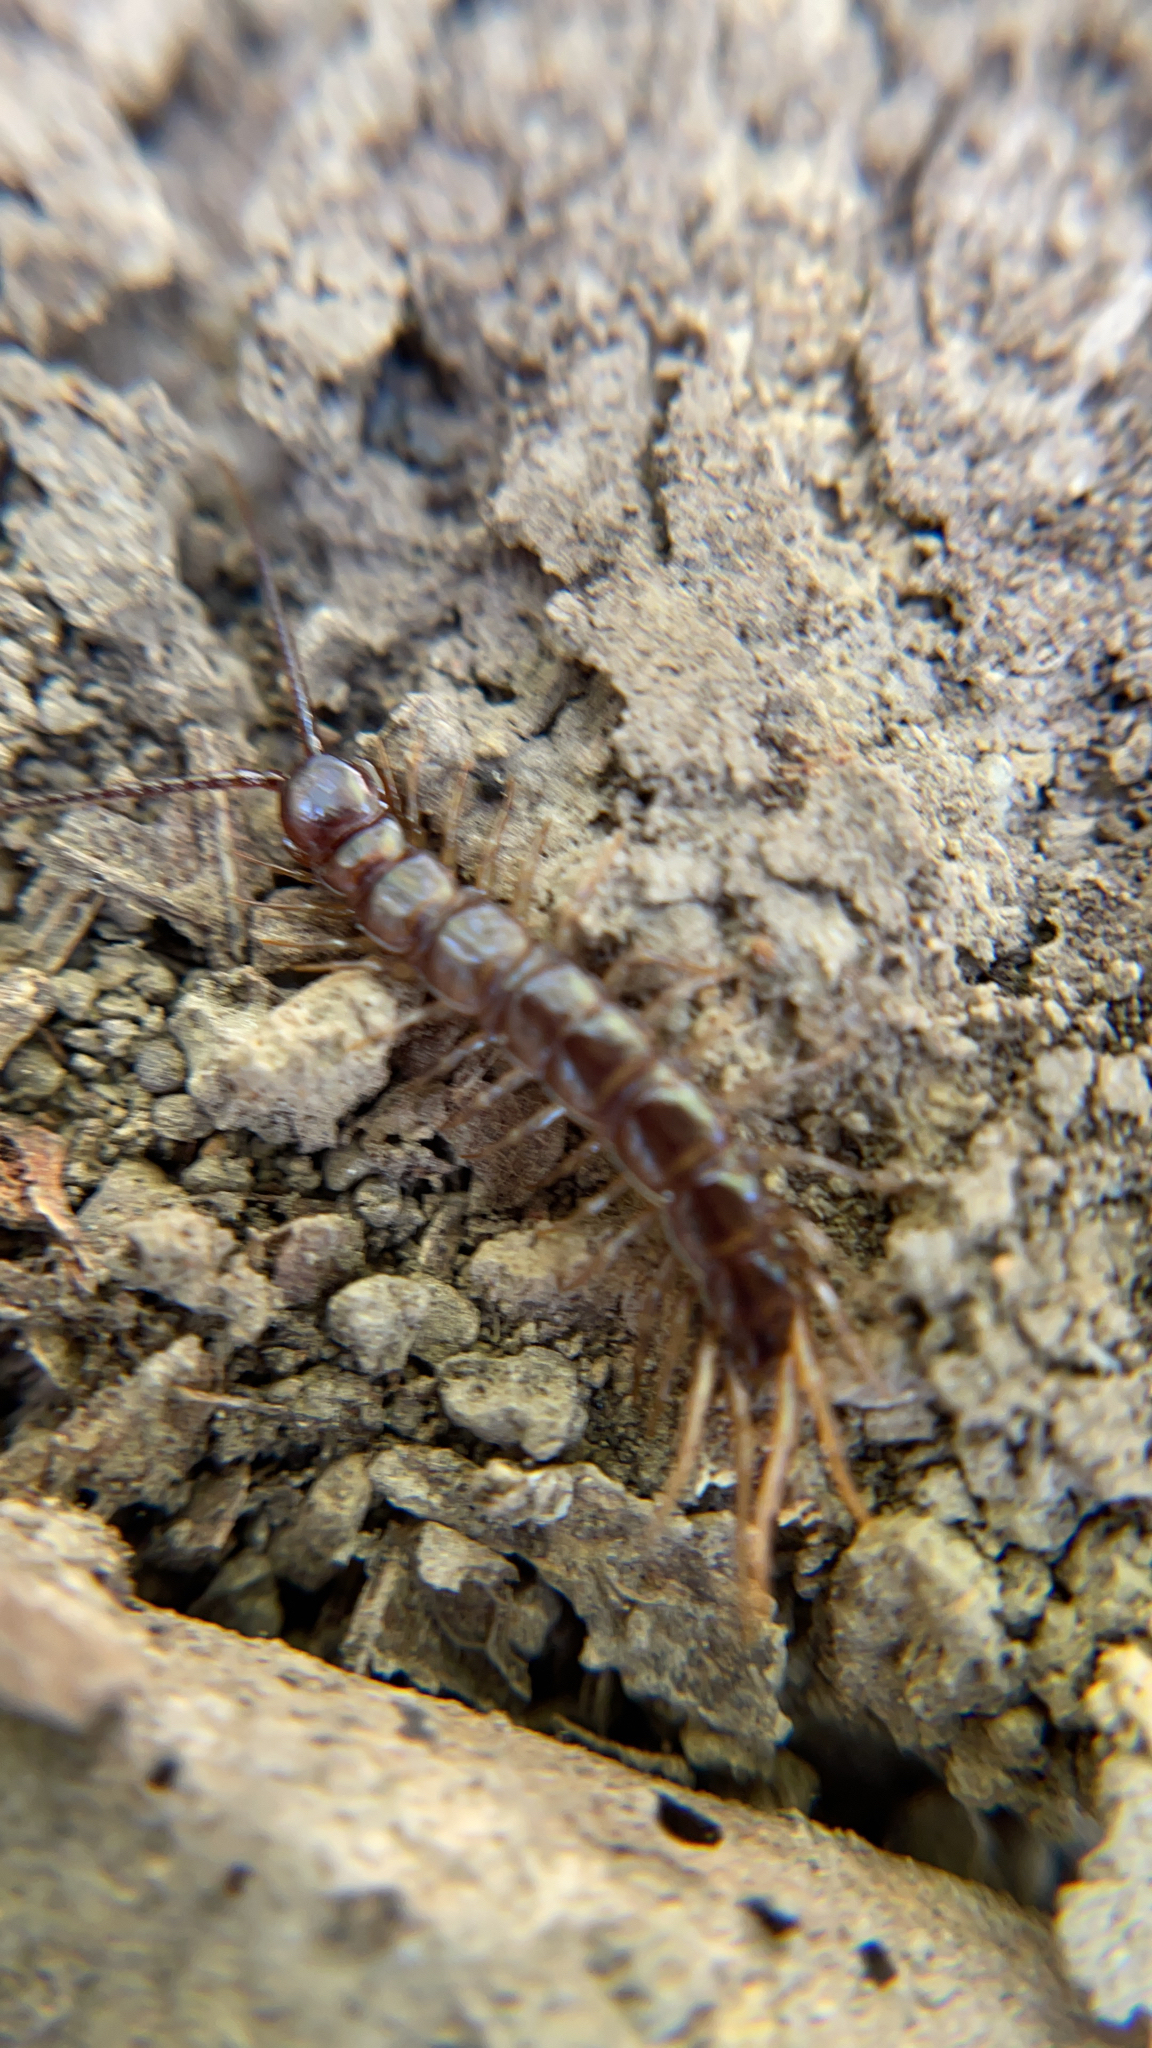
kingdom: Animalia
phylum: Arthropoda
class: Chilopoda
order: Lithobiomorpha
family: Lithobiidae
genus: Lithobius
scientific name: Lithobius forficatus
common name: Centipede
